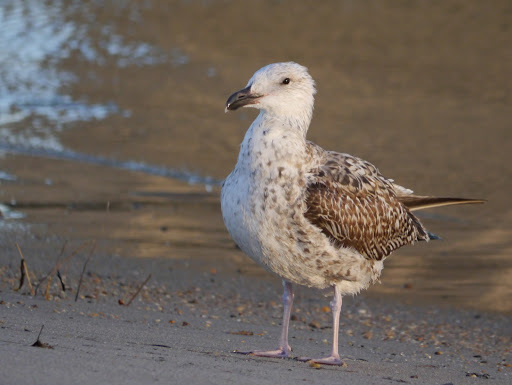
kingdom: Animalia
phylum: Chordata
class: Aves
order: Charadriiformes
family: Laridae
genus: Larus
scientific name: Larus marinus
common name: Great black-backed gull
